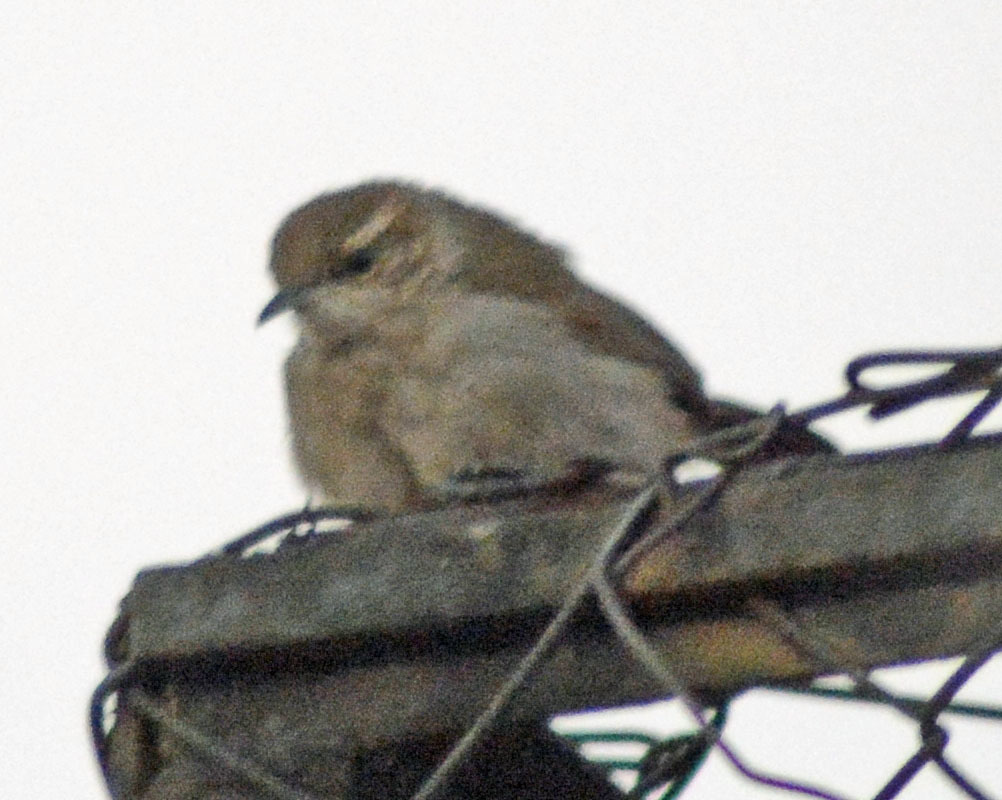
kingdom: Animalia
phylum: Chordata
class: Aves
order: Passeriformes
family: Troglodytidae
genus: Thryomanes
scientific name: Thryomanes bewickii
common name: Bewick's wren
